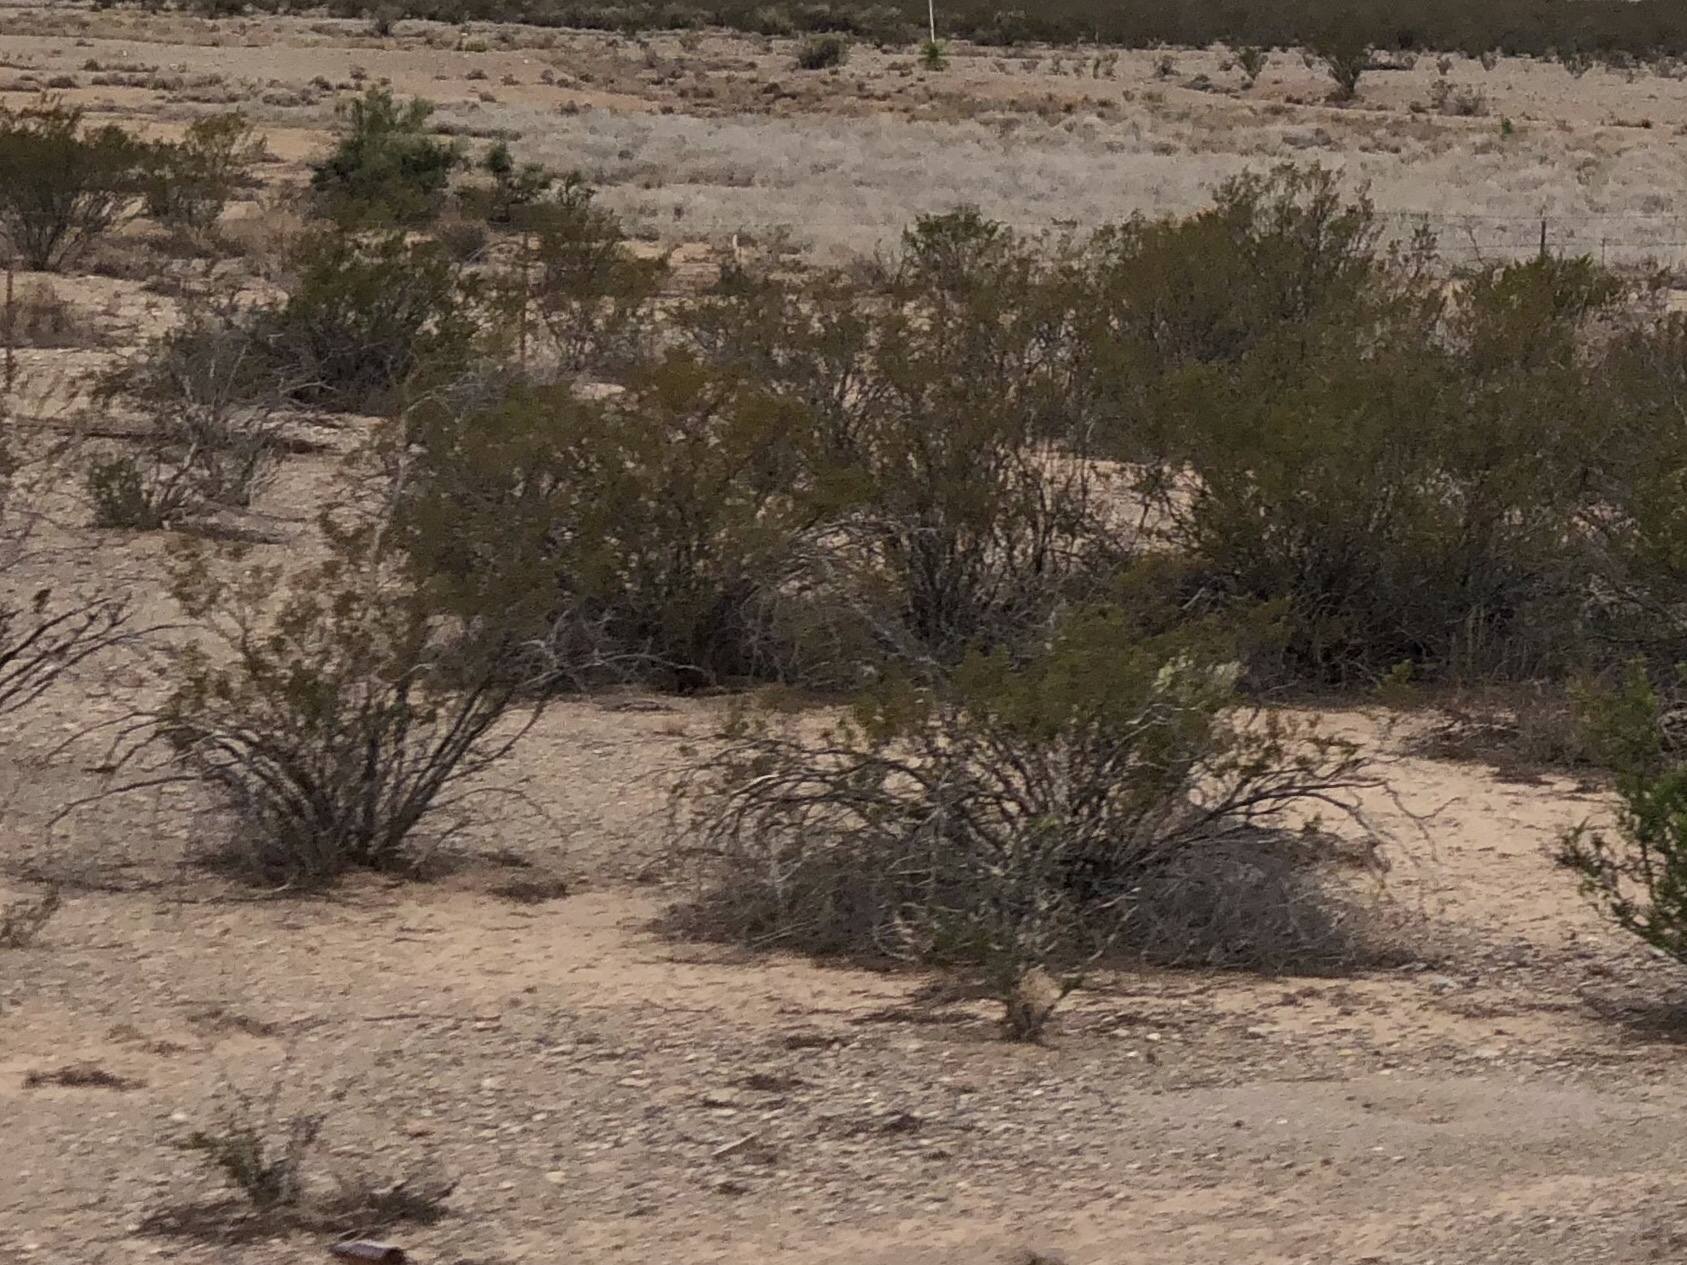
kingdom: Plantae
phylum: Tracheophyta
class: Magnoliopsida
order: Zygophyllales
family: Zygophyllaceae
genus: Larrea
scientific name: Larrea tridentata
